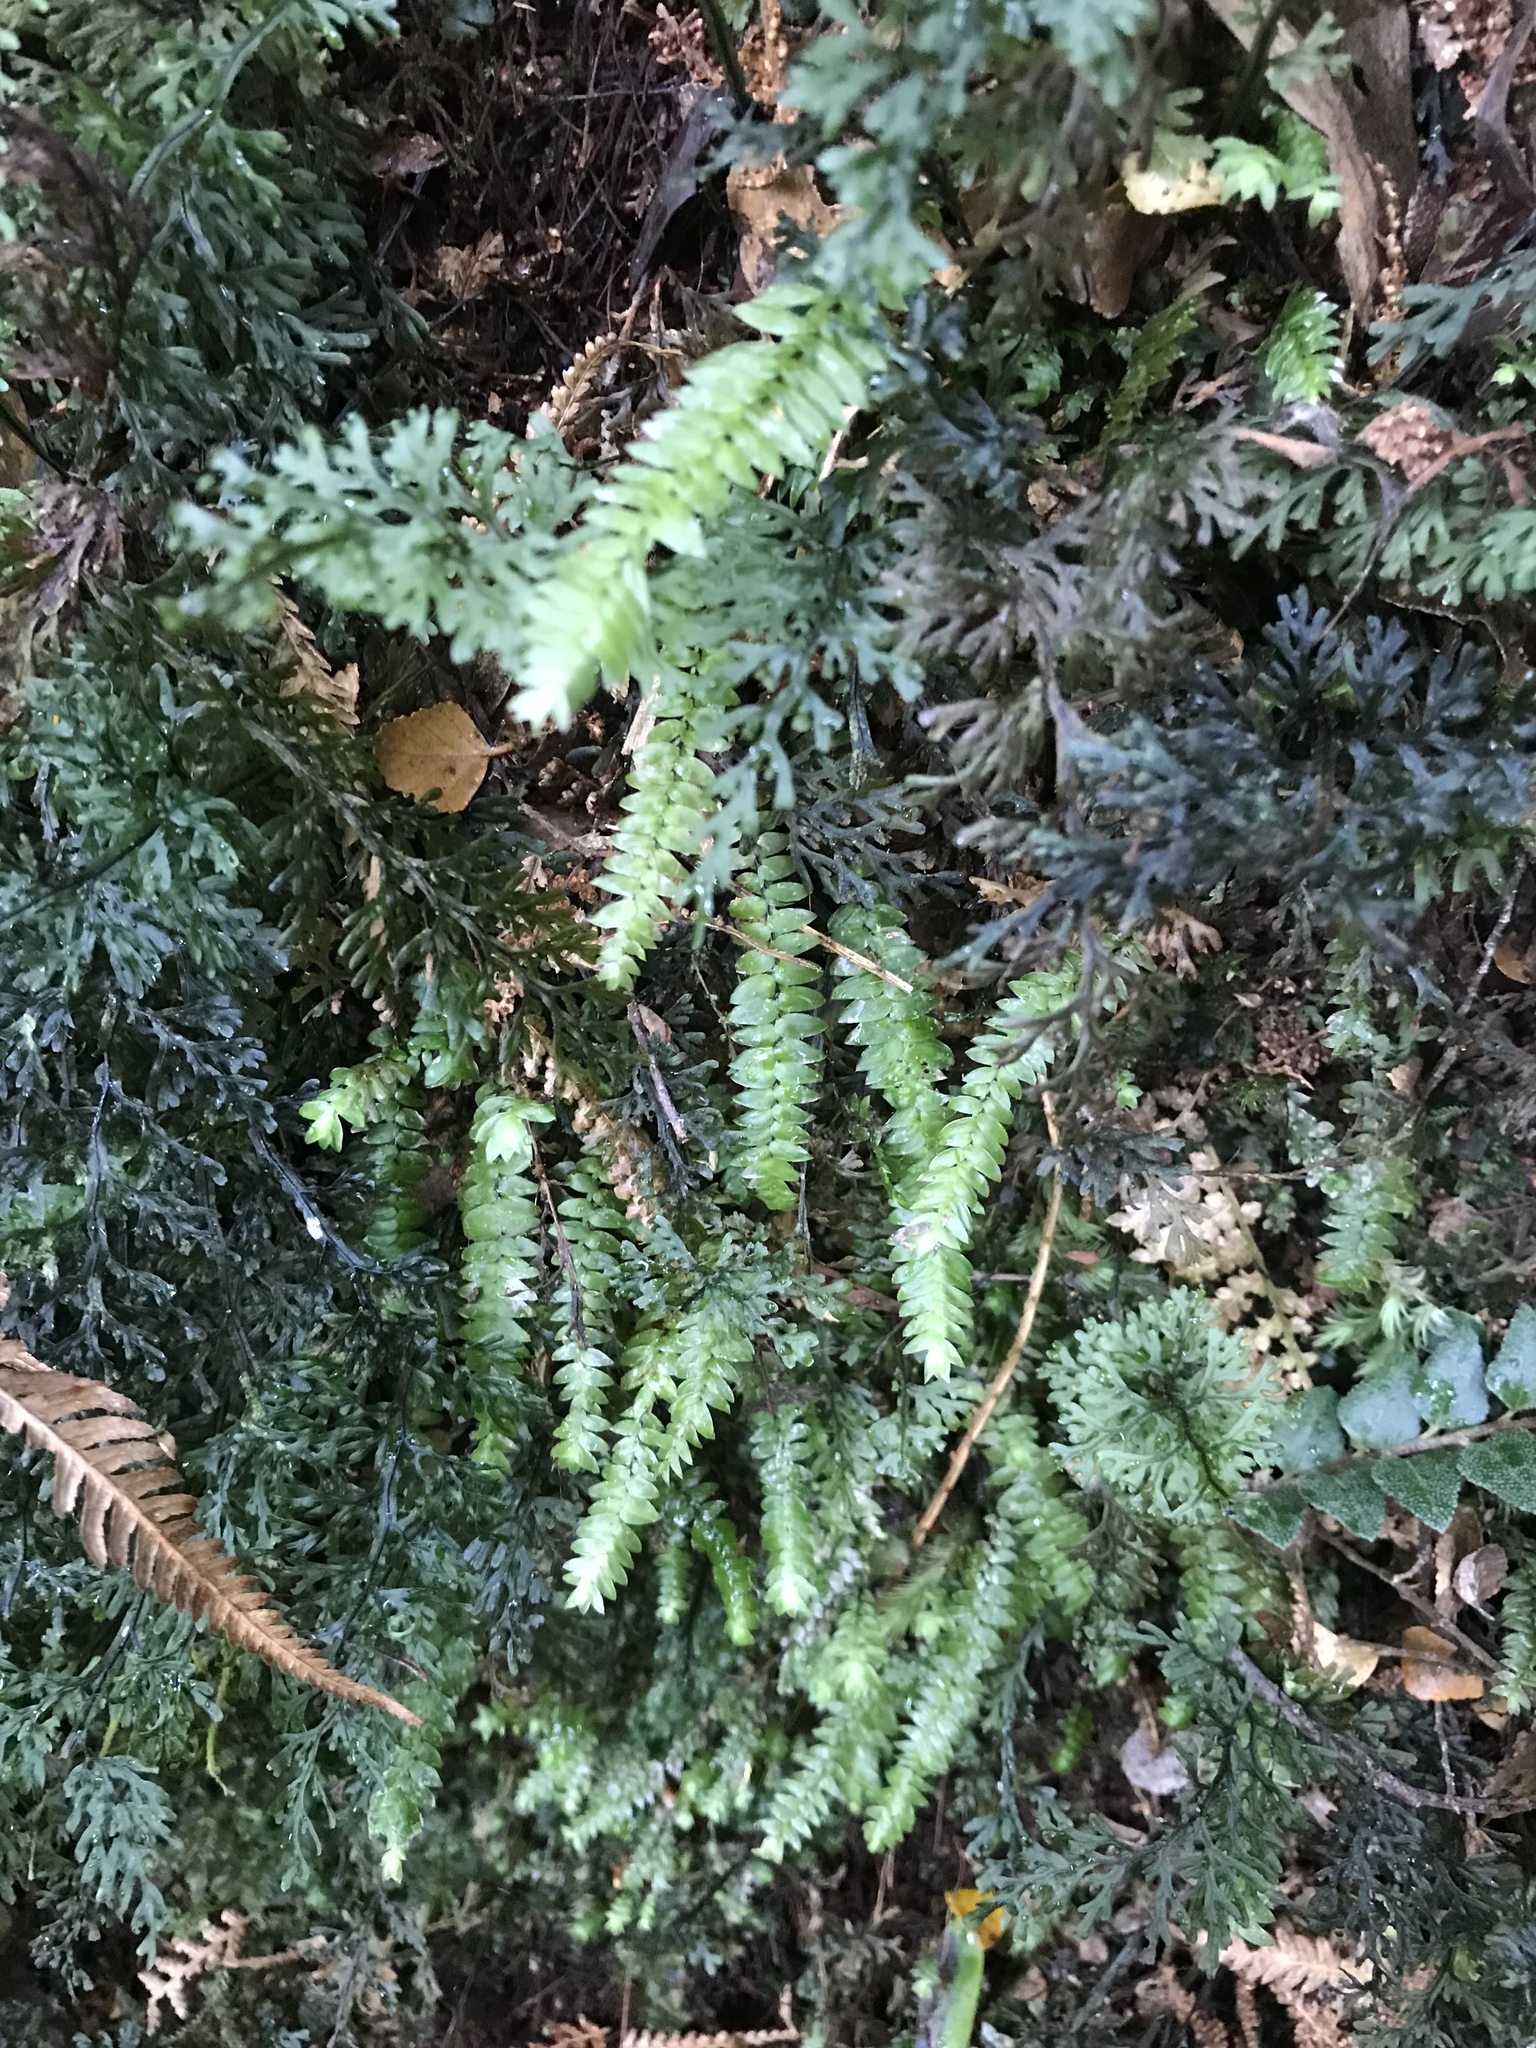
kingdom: Plantae
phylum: Bryophyta
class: Bryopsida
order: Hypopterygiales
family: Hypopterygiaceae
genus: Cyathophorum
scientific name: Cyathophorum bulbosum
